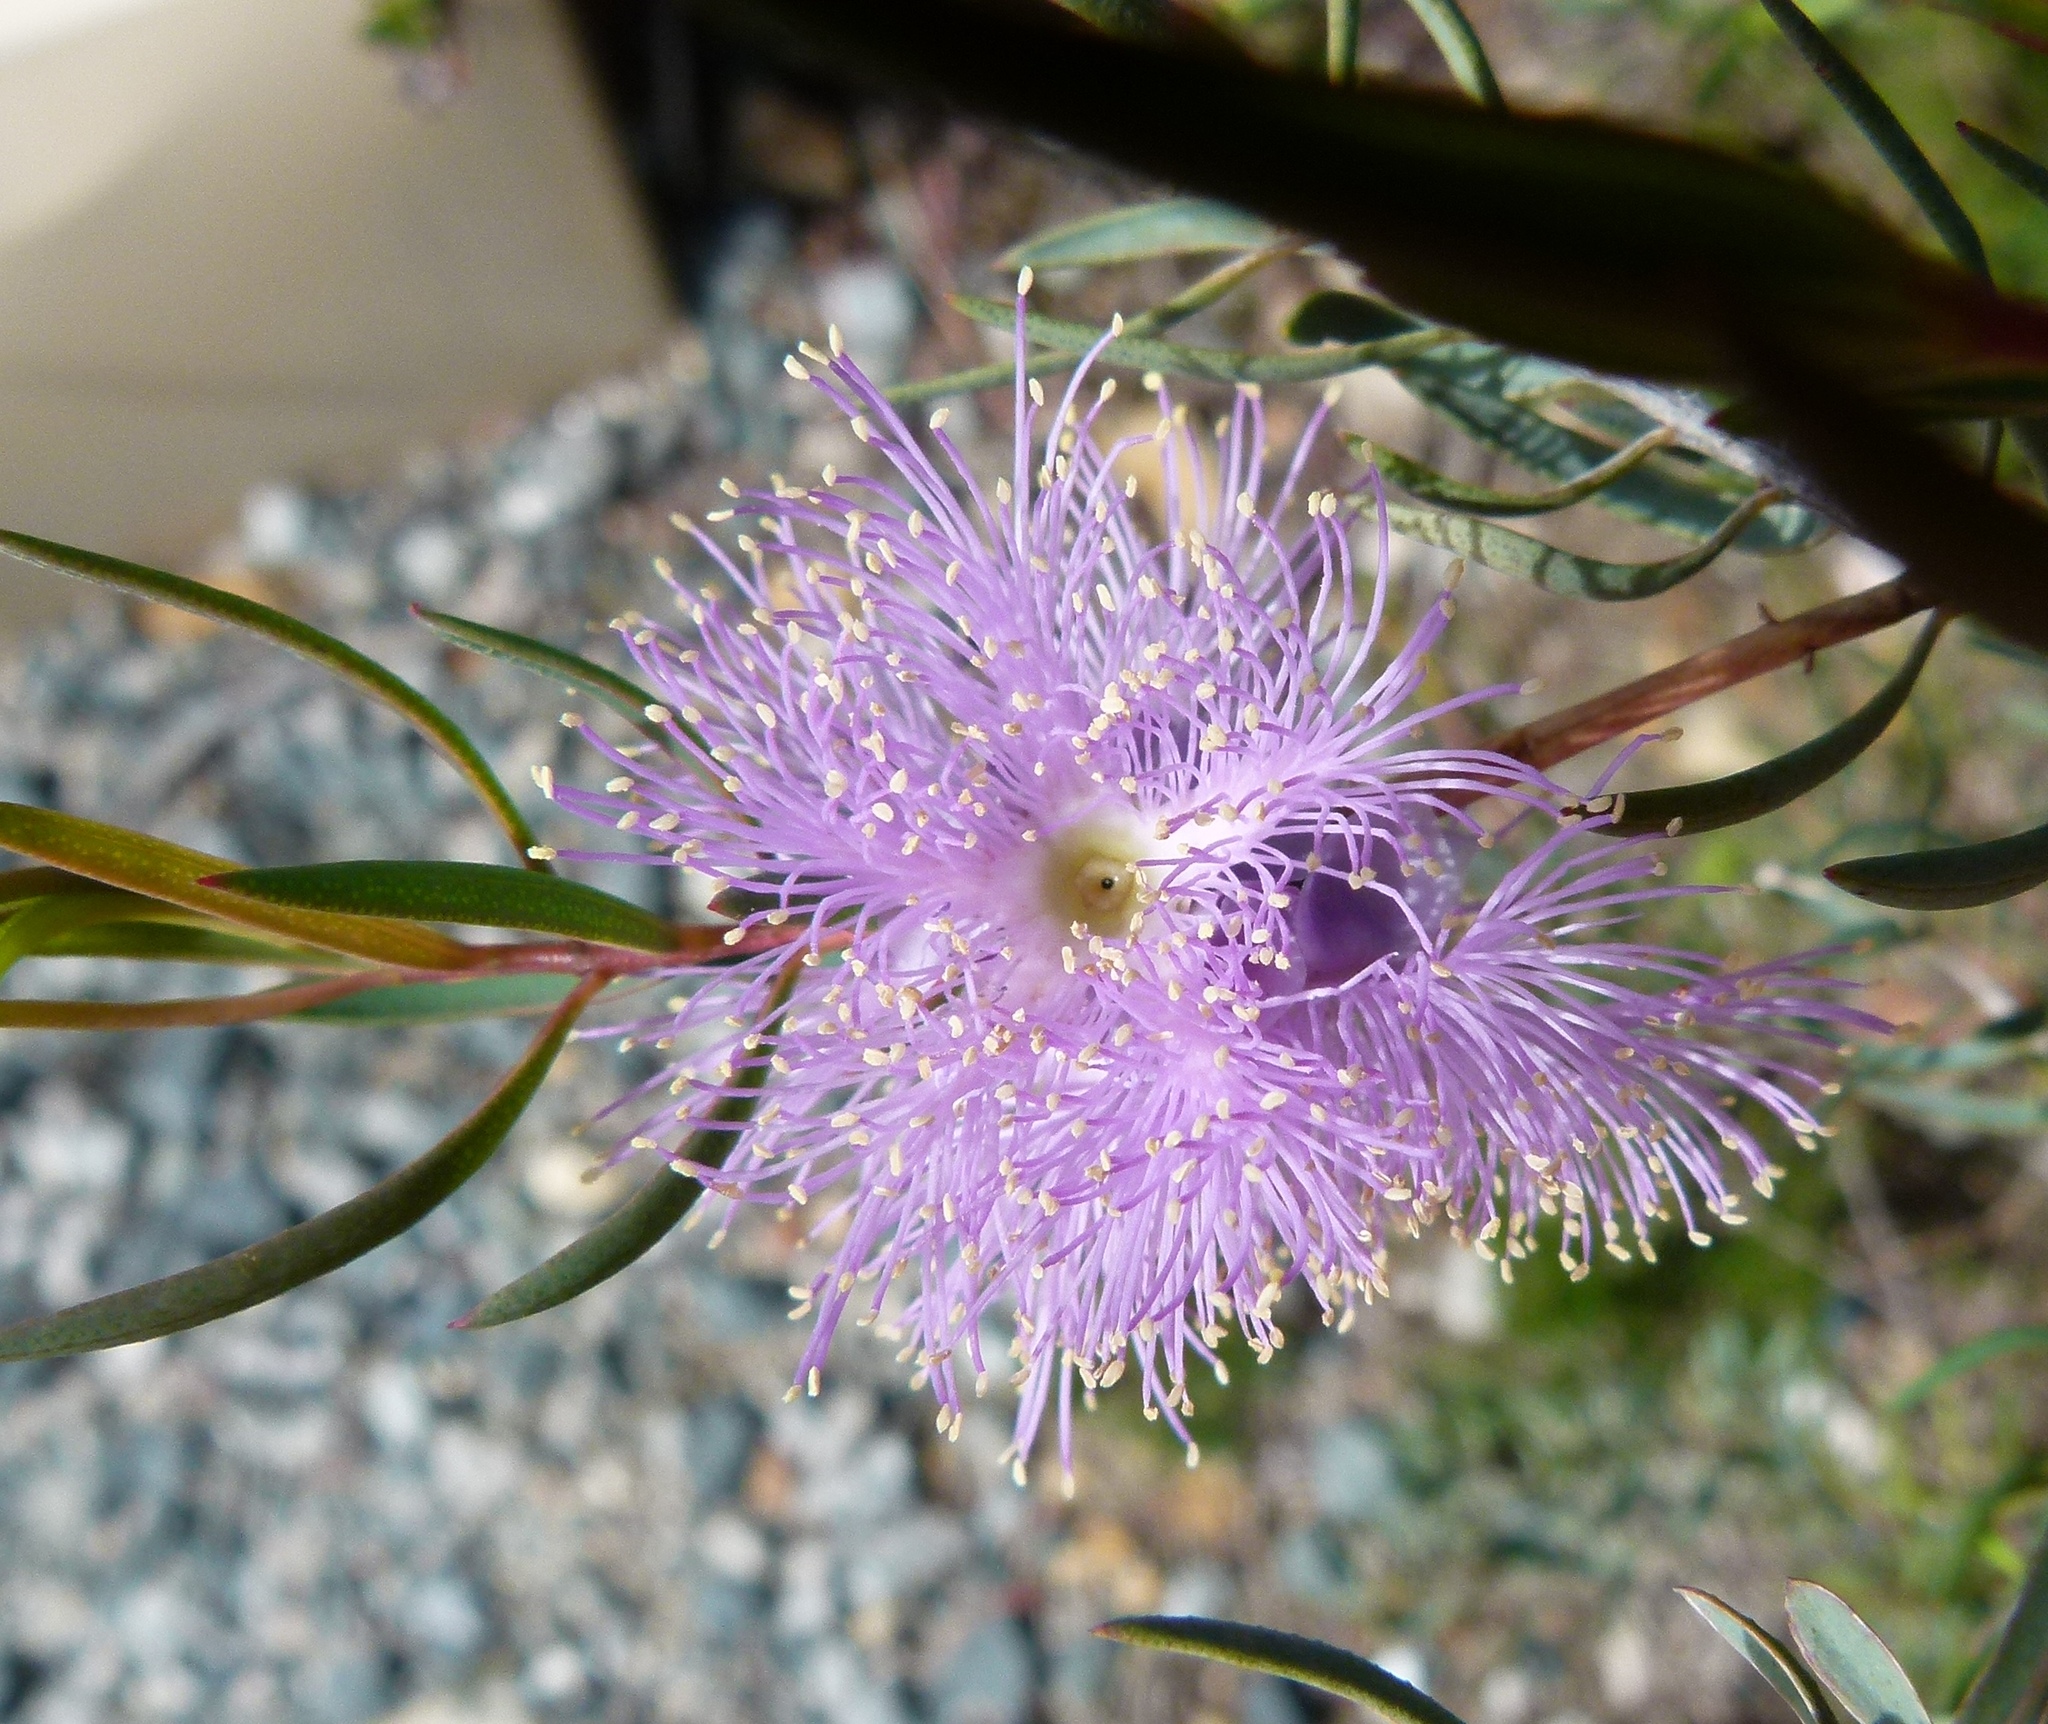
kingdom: Plantae
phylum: Tracheophyta
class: Magnoliopsida
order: Myrtales
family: Myrtaceae
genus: Melaleuca
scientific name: Melaleuca radula
